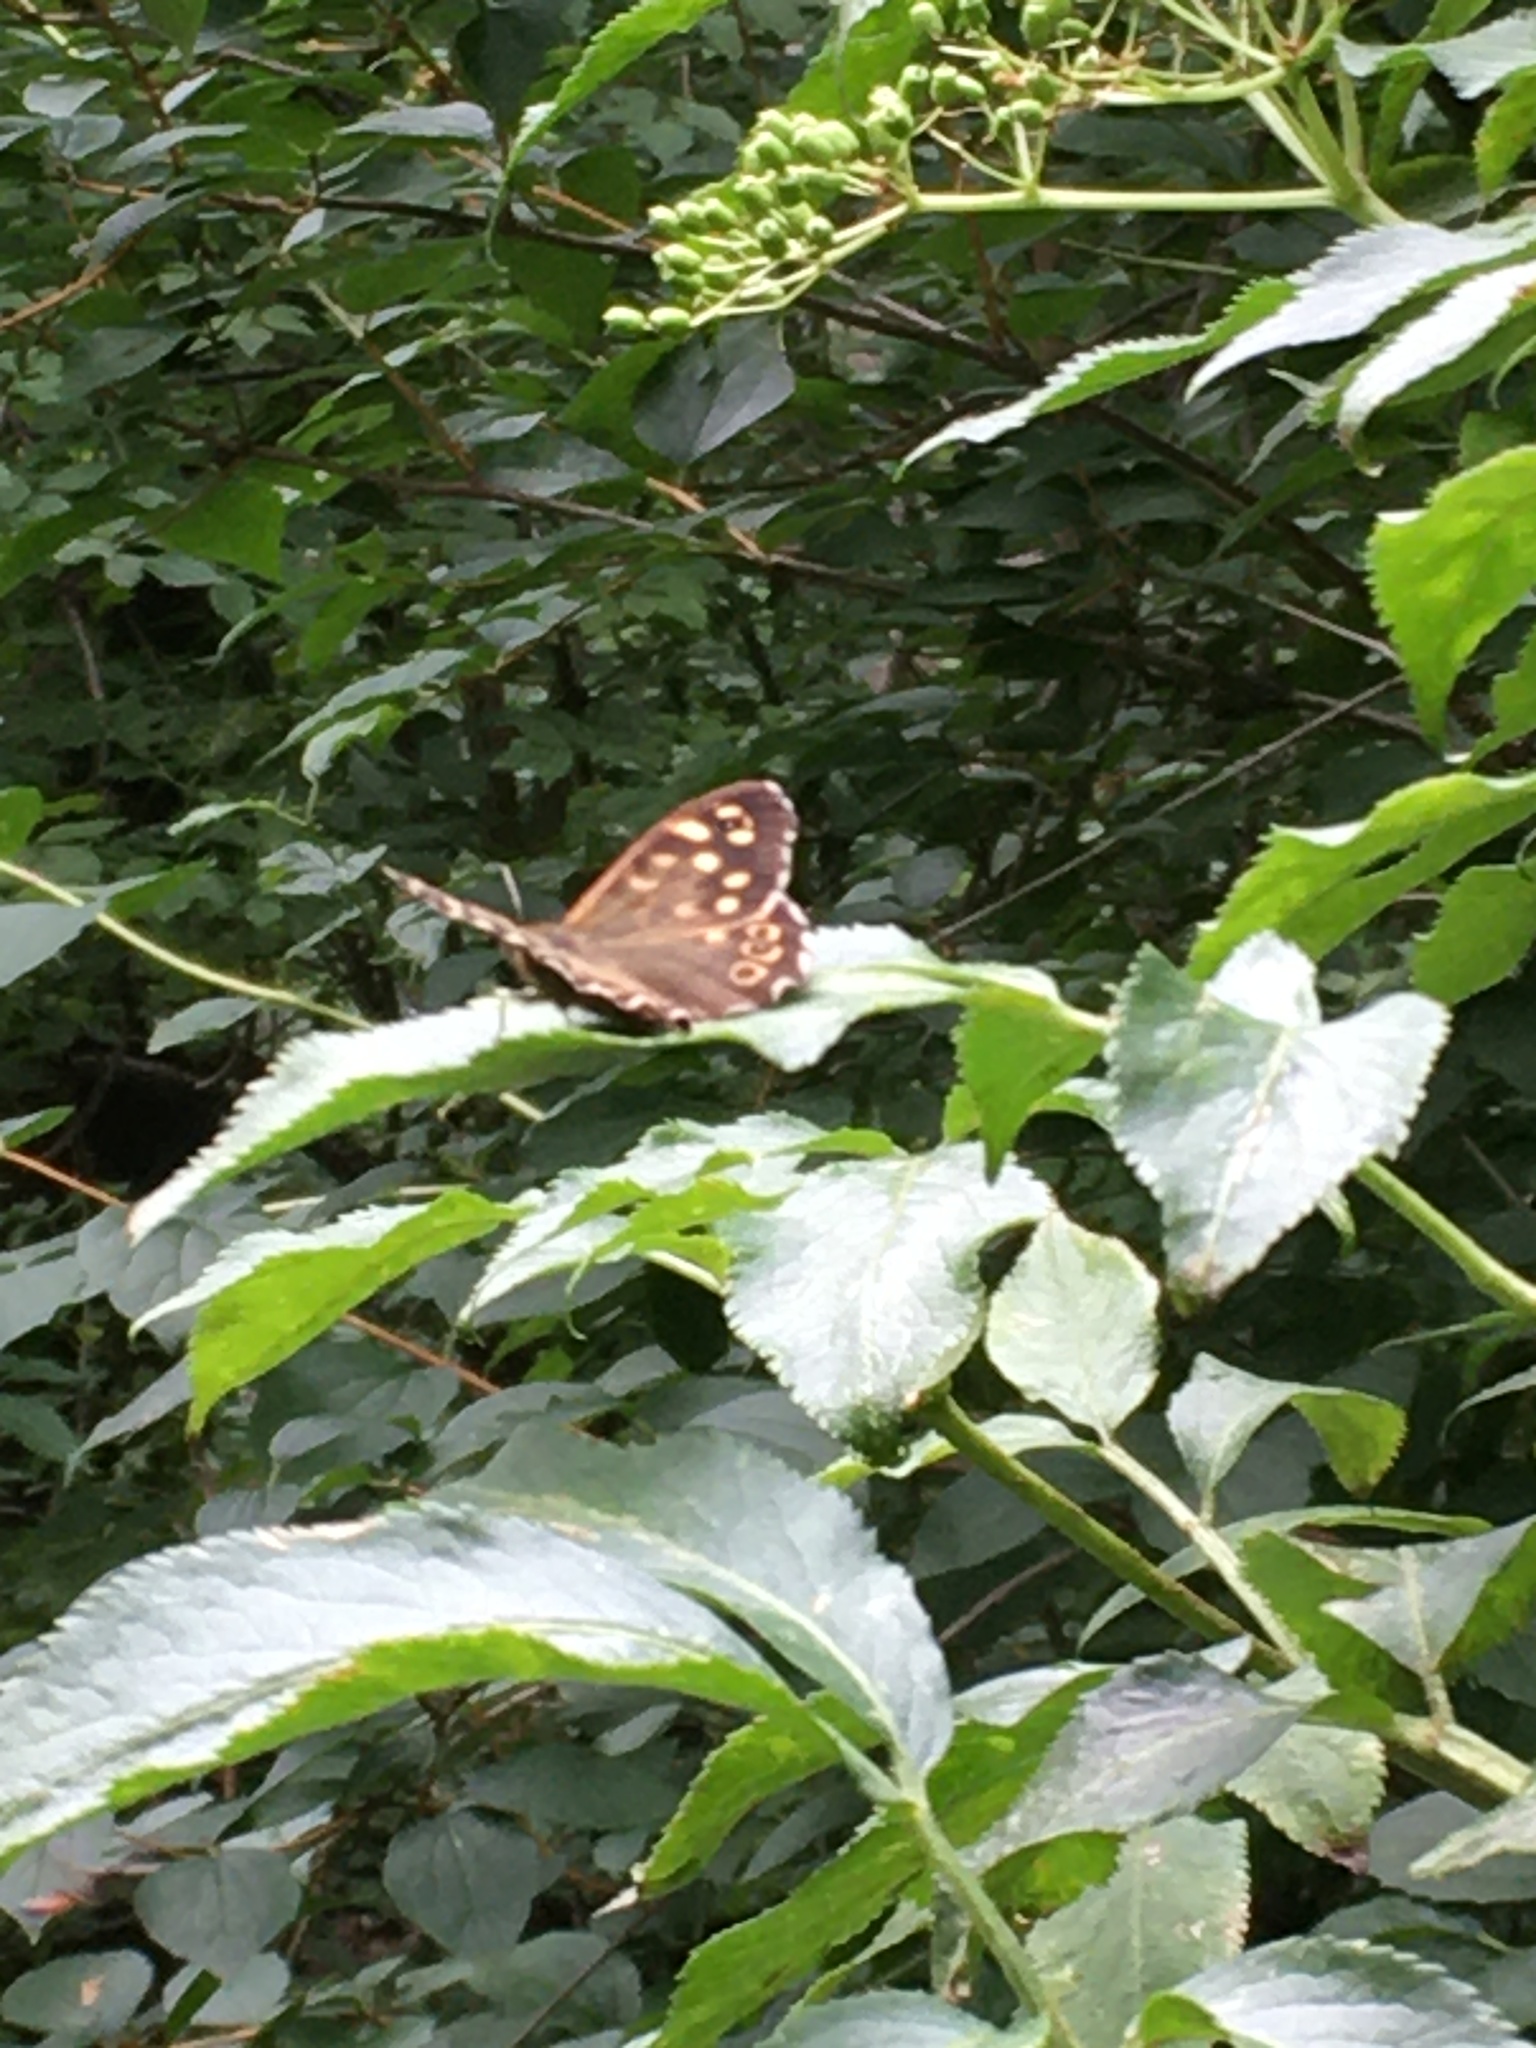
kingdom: Animalia
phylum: Arthropoda
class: Insecta
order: Lepidoptera
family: Nymphalidae
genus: Pararge
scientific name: Pararge aegeria
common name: Speckled wood
